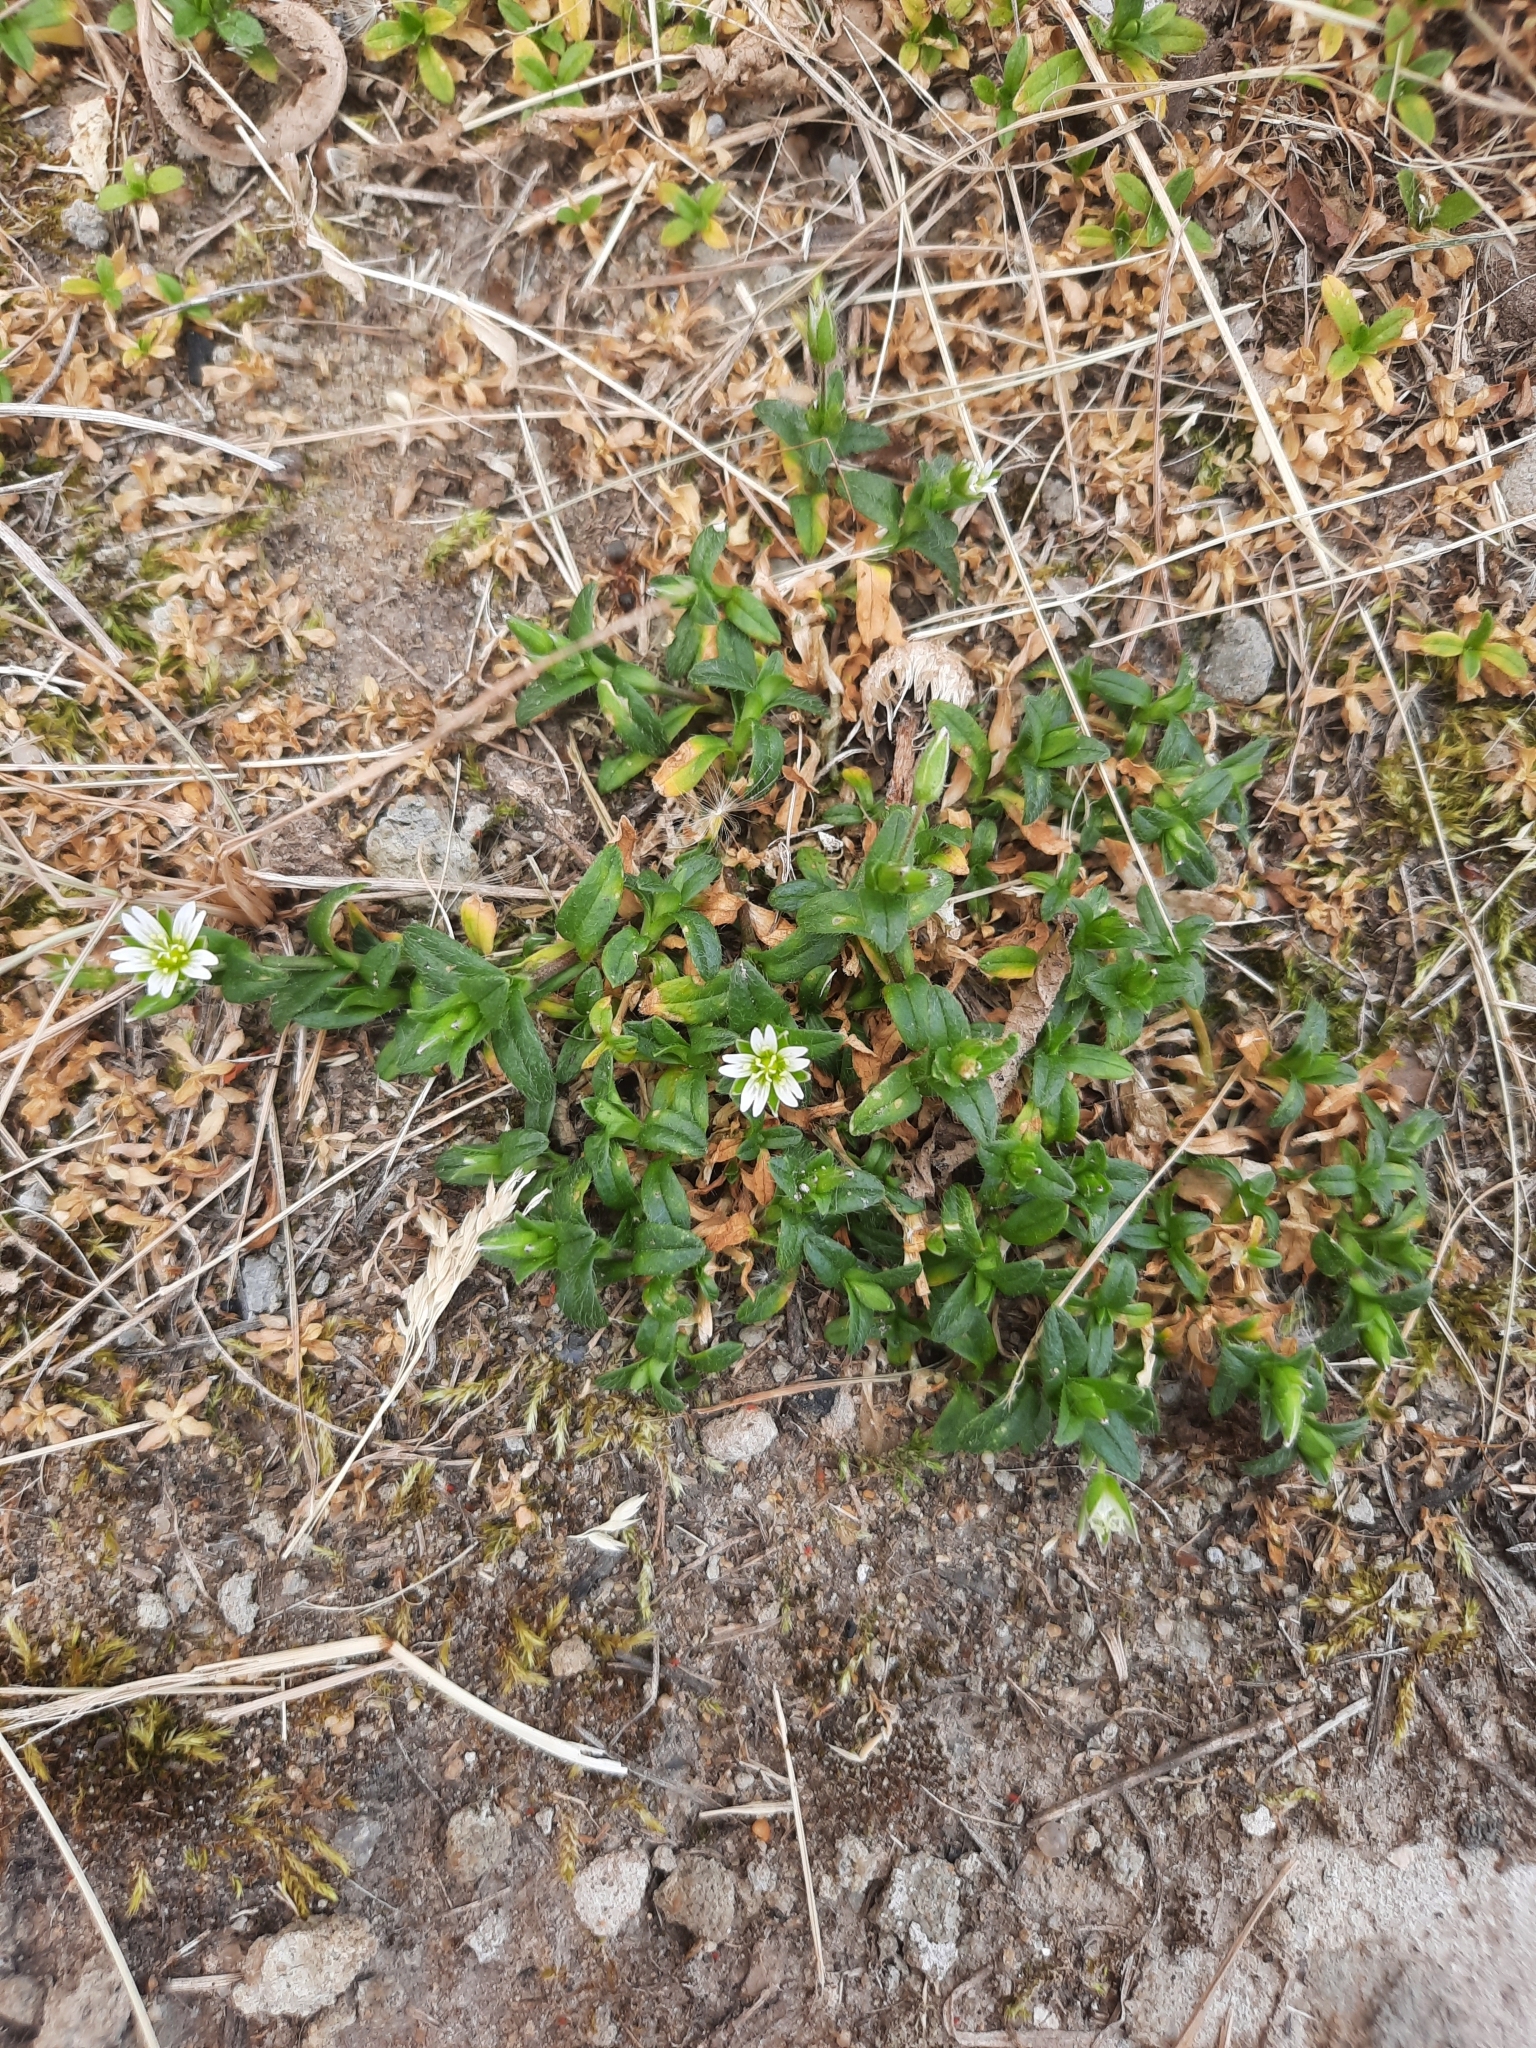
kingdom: Plantae
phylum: Tracheophyta
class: Magnoliopsida
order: Caryophyllales
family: Caryophyllaceae
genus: Cerastium
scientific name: Cerastium holosteoides
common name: Big chickweed
